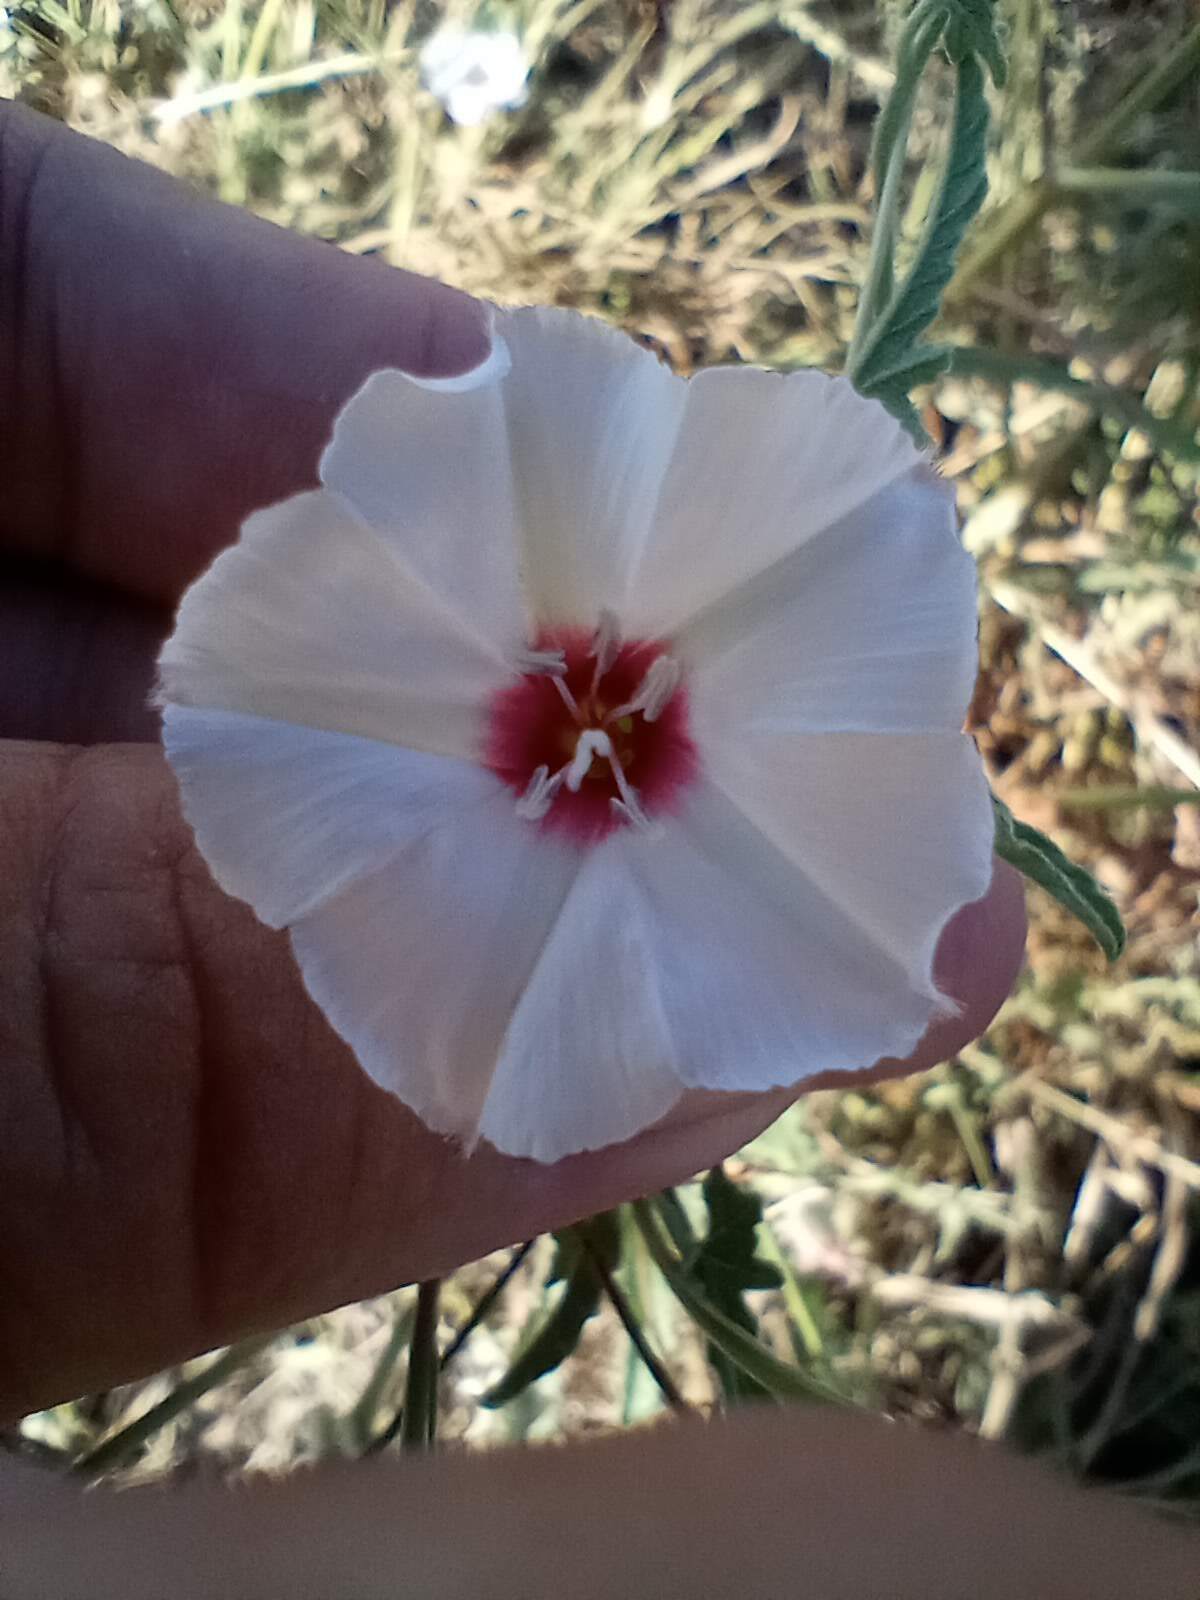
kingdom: Plantae
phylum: Tracheophyta
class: Magnoliopsida
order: Solanales
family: Convolvulaceae
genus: Convolvulus
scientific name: Convolvulus equitans
